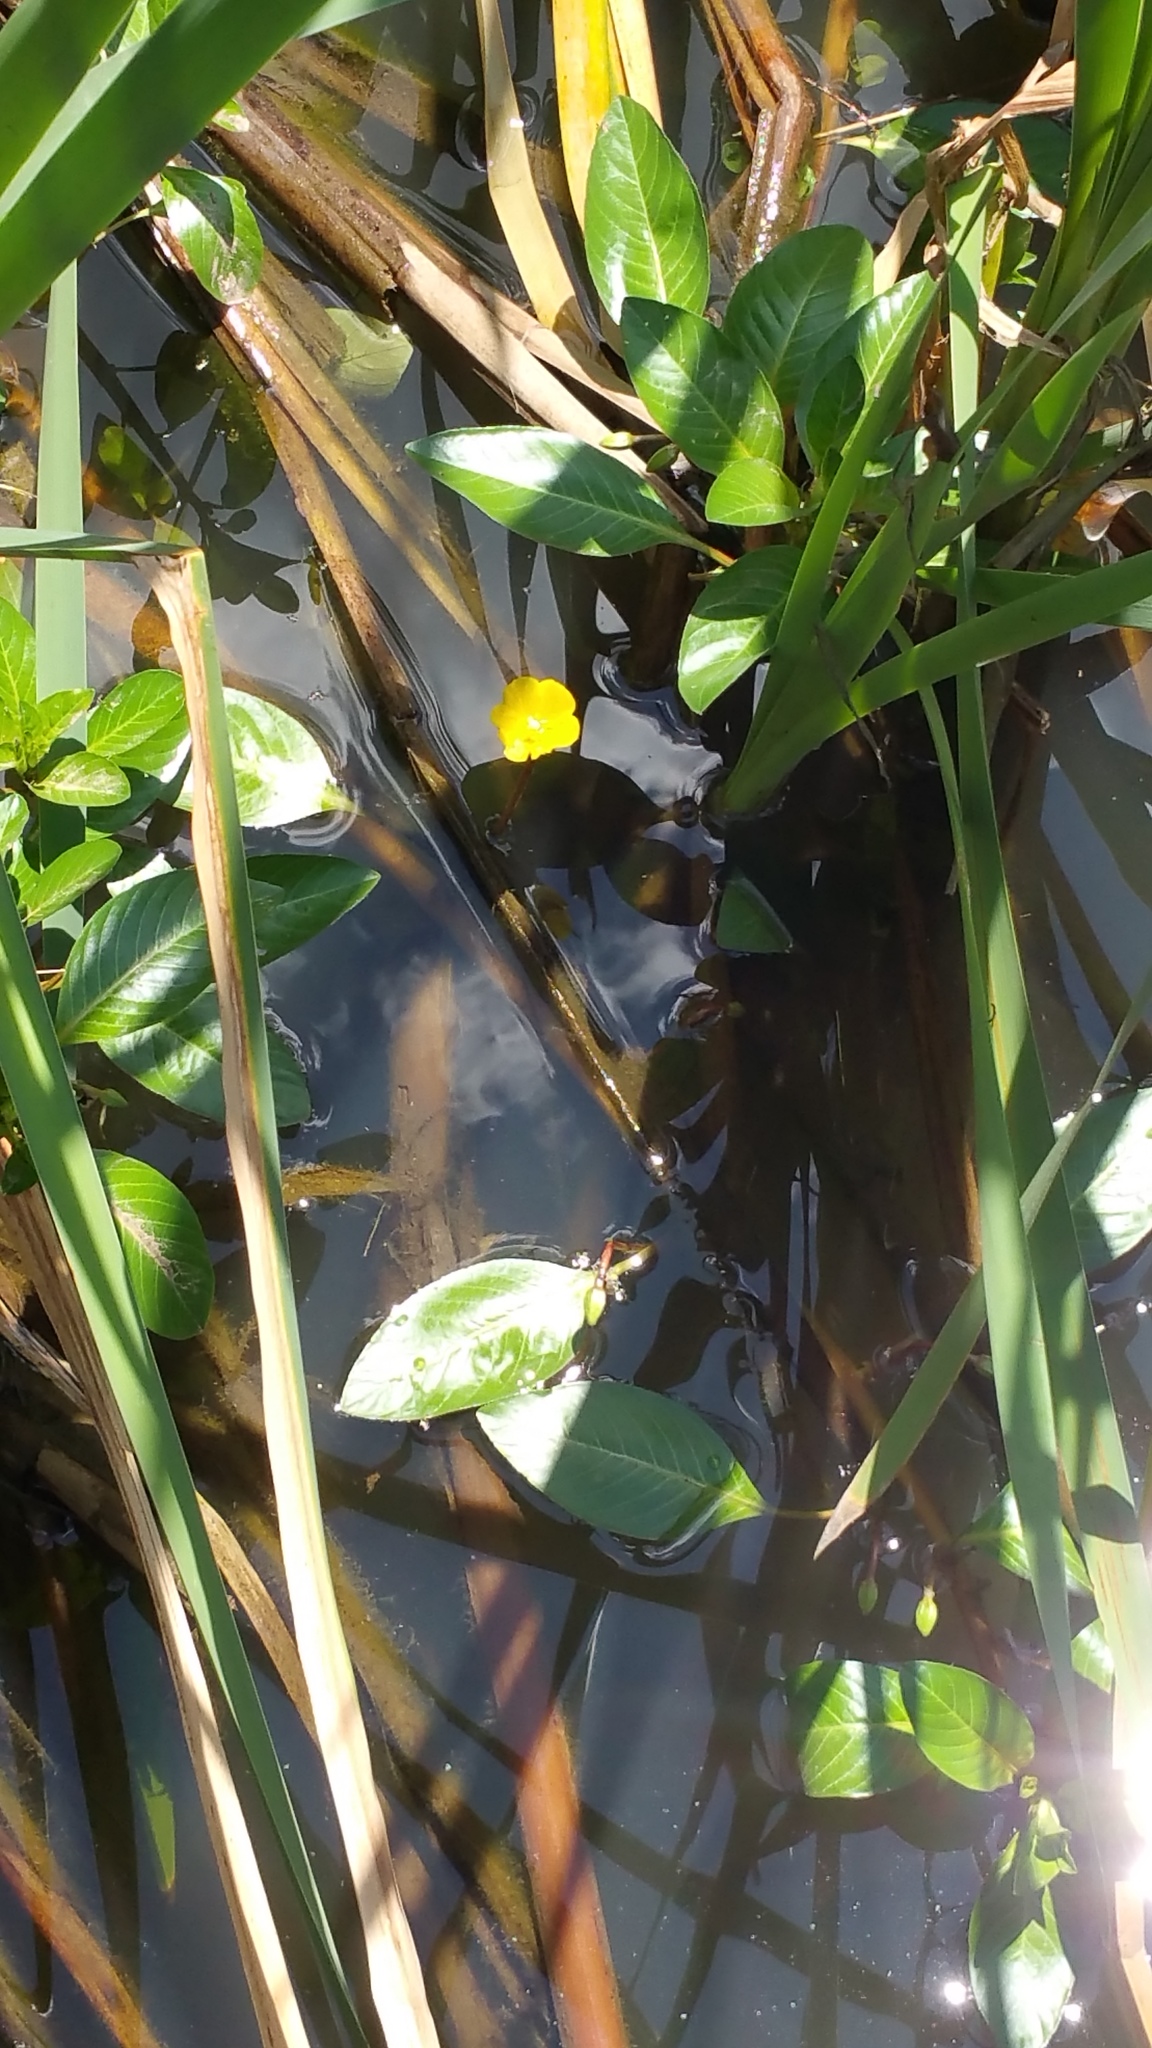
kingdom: Plantae
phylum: Tracheophyta
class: Magnoliopsida
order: Myrtales
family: Onagraceae
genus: Ludwigia
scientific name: Ludwigia peploides
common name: Floating primrose-willow
